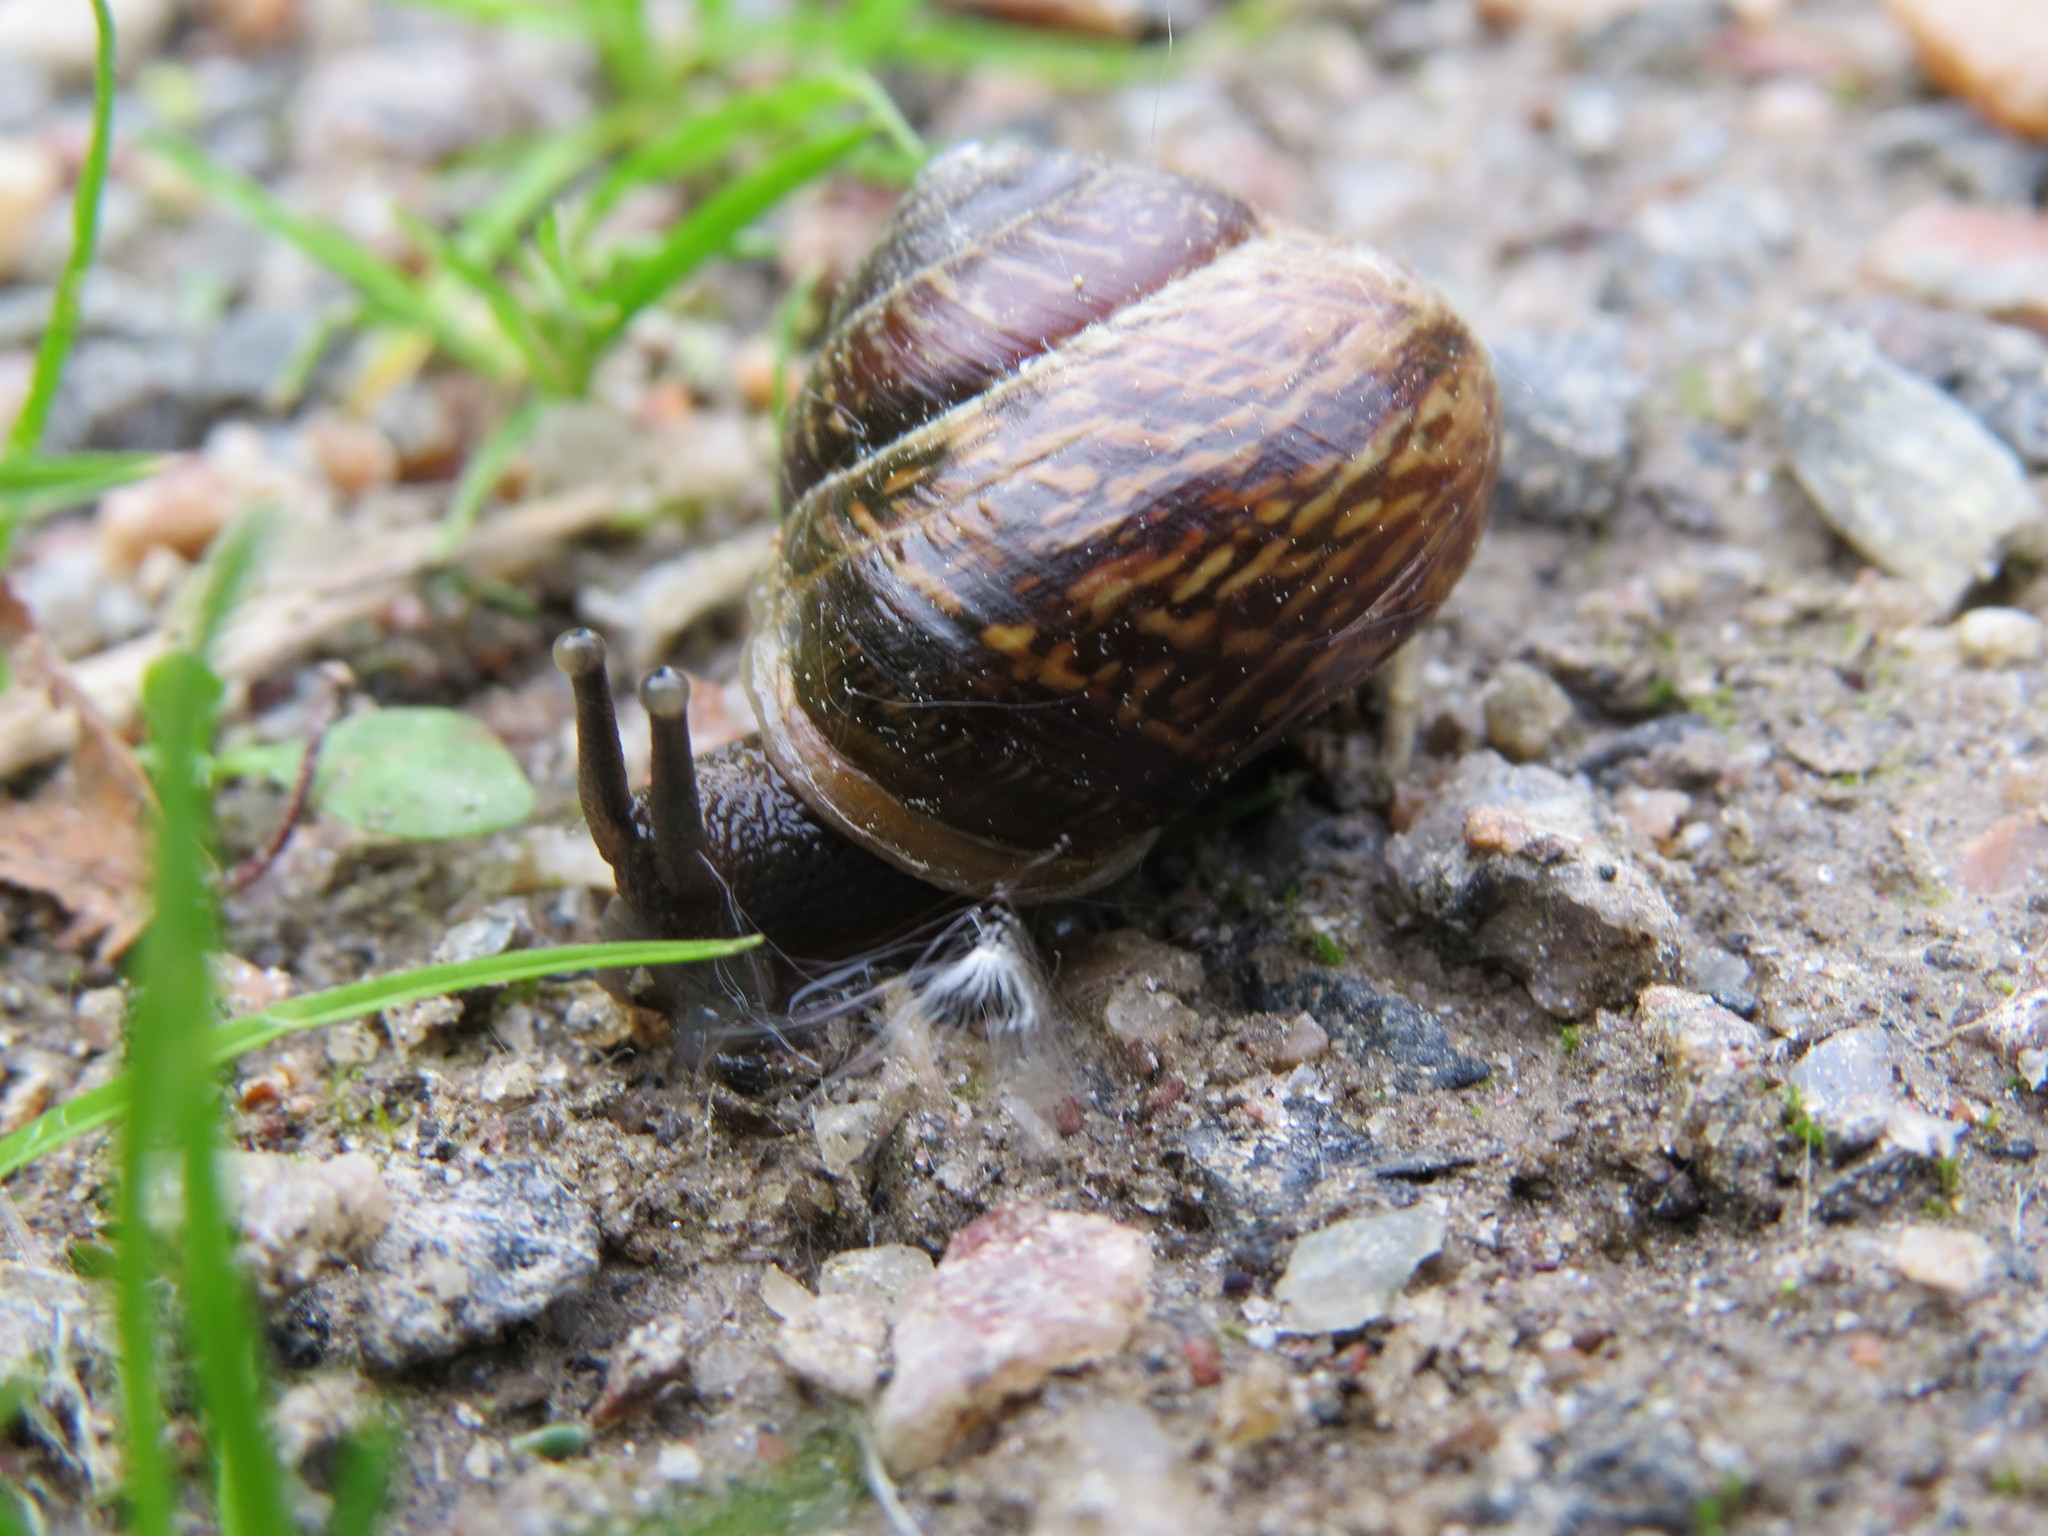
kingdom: Animalia
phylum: Mollusca
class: Gastropoda
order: Stylommatophora
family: Helicidae
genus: Arianta
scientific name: Arianta arbustorum
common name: Copse snail
